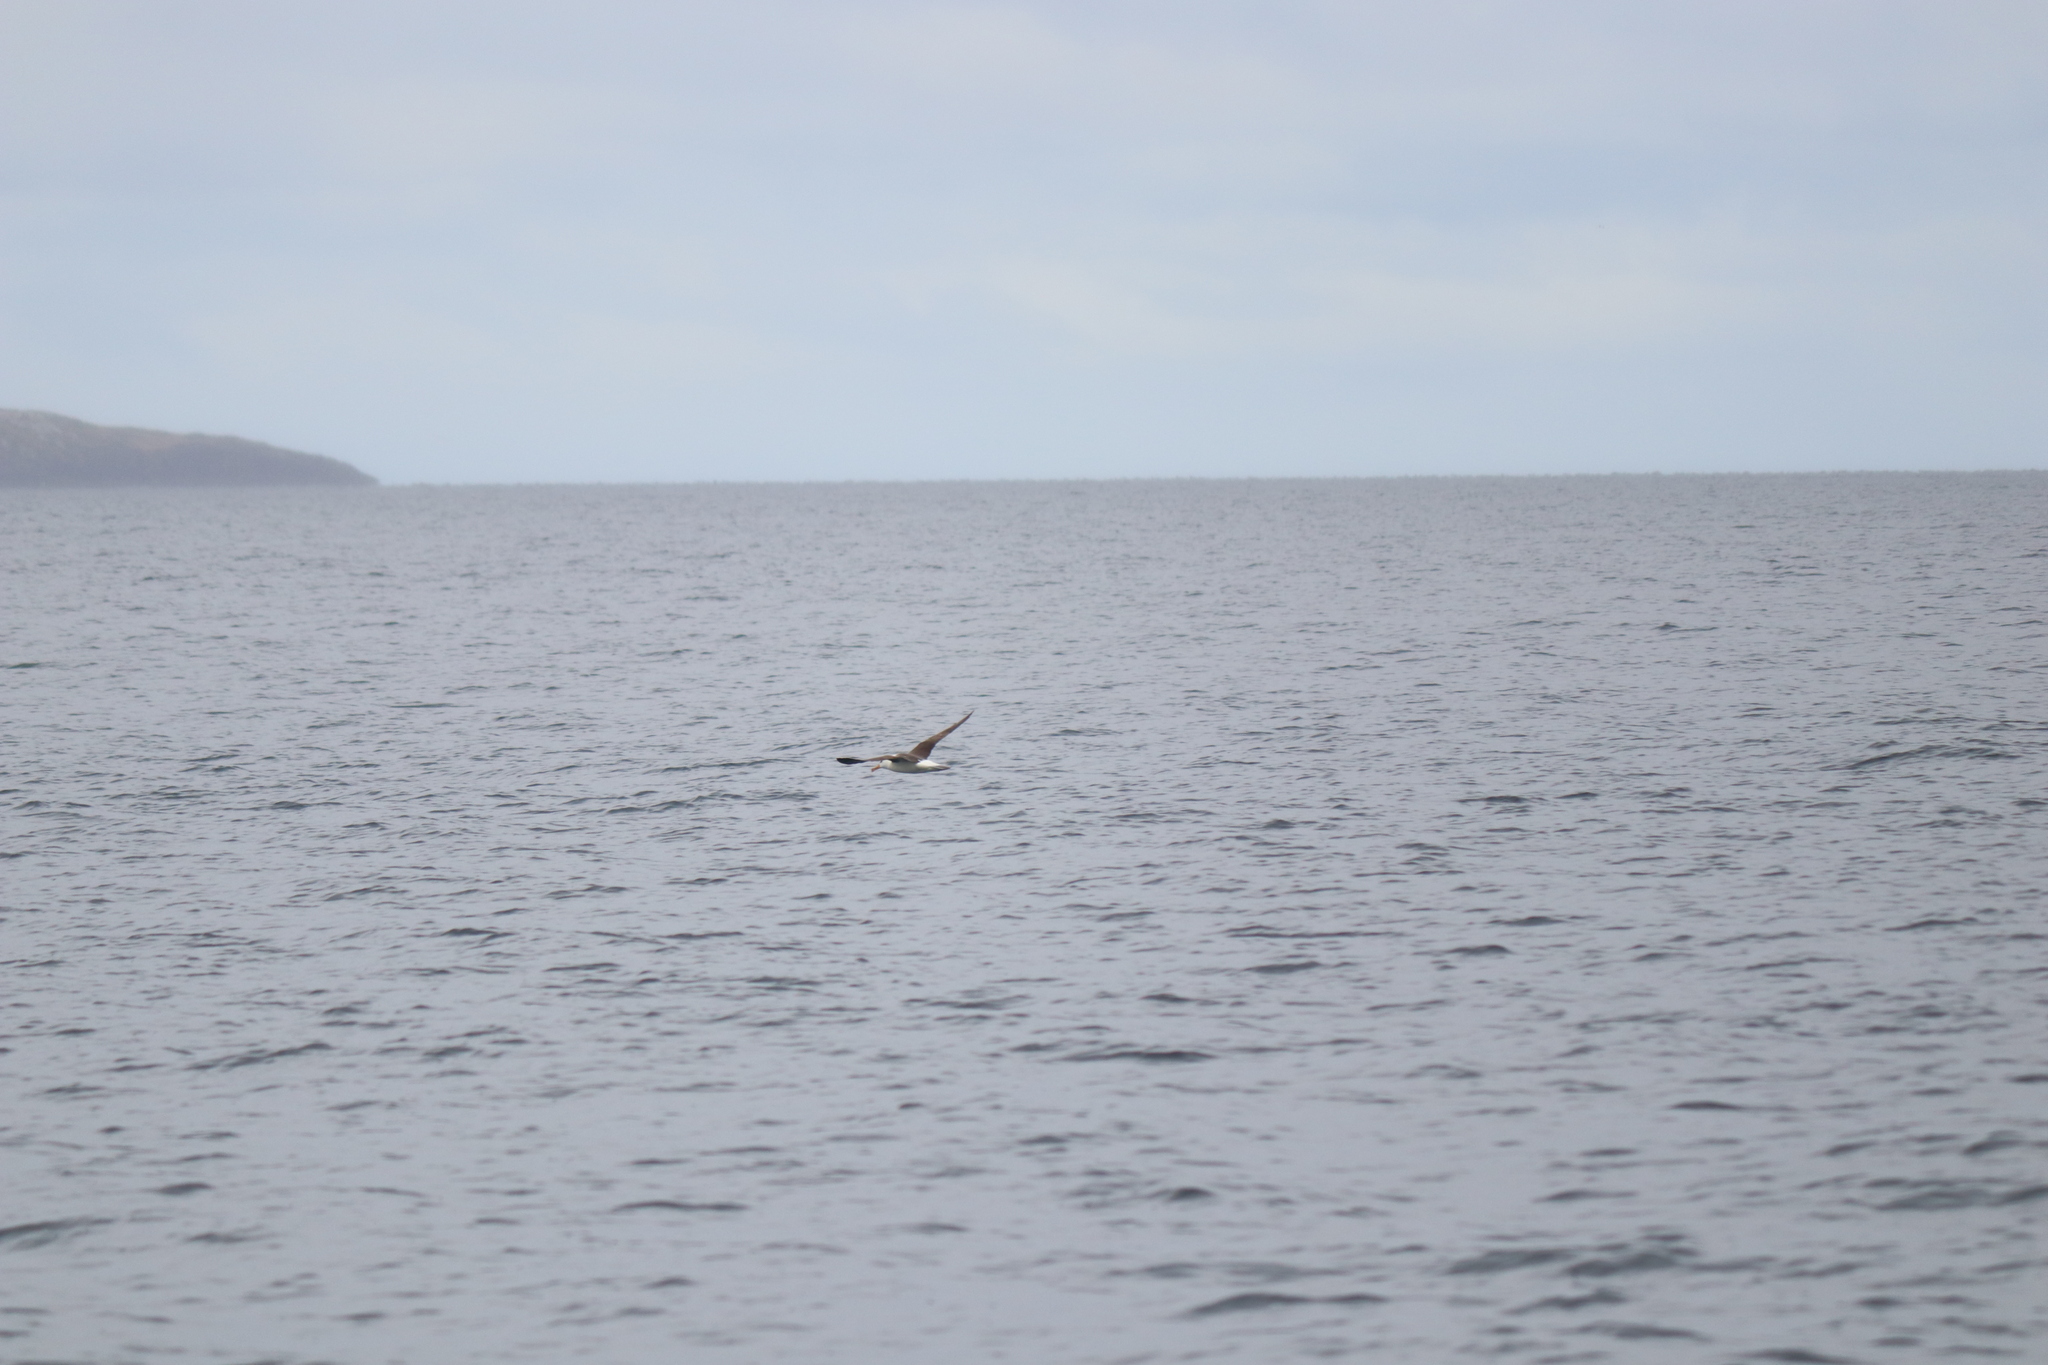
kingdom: Animalia
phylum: Chordata
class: Aves
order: Procellariiformes
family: Diomedeidae
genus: Thalassarche
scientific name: Thalassarche melanophris
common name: Black-browed albatross
